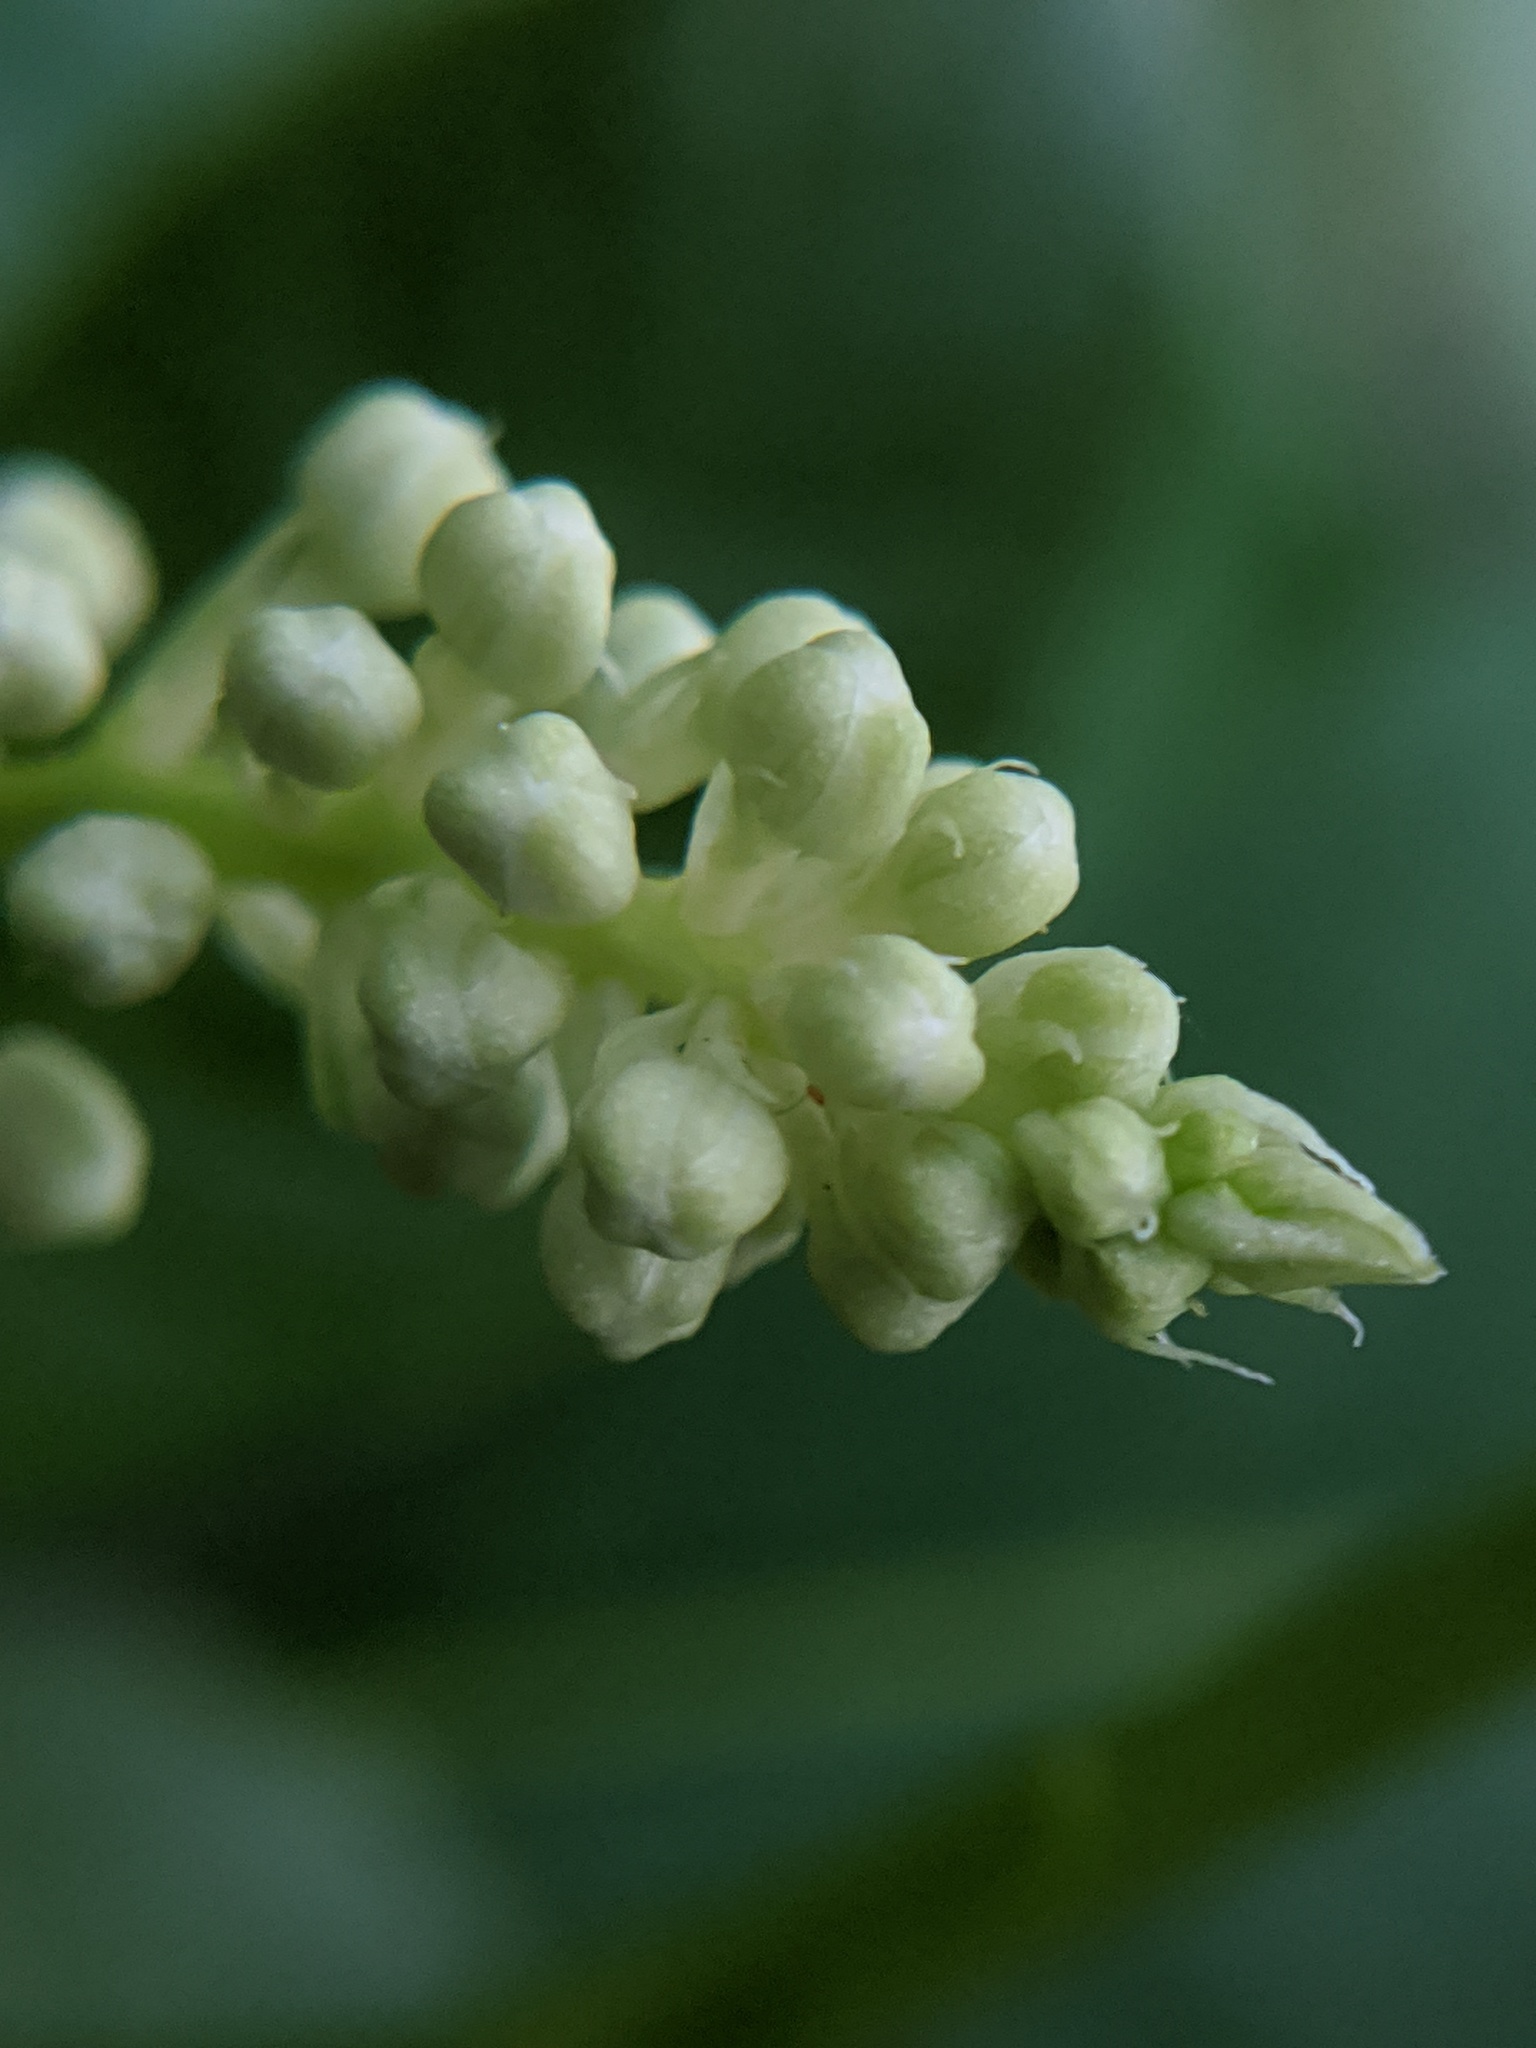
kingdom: Plantae
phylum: Tracheophyta
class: Magnoliopsida
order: Caryophyllales
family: Phytolaccaceae
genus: Phytolacca
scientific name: Phytolacca americana
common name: American pokeweed
